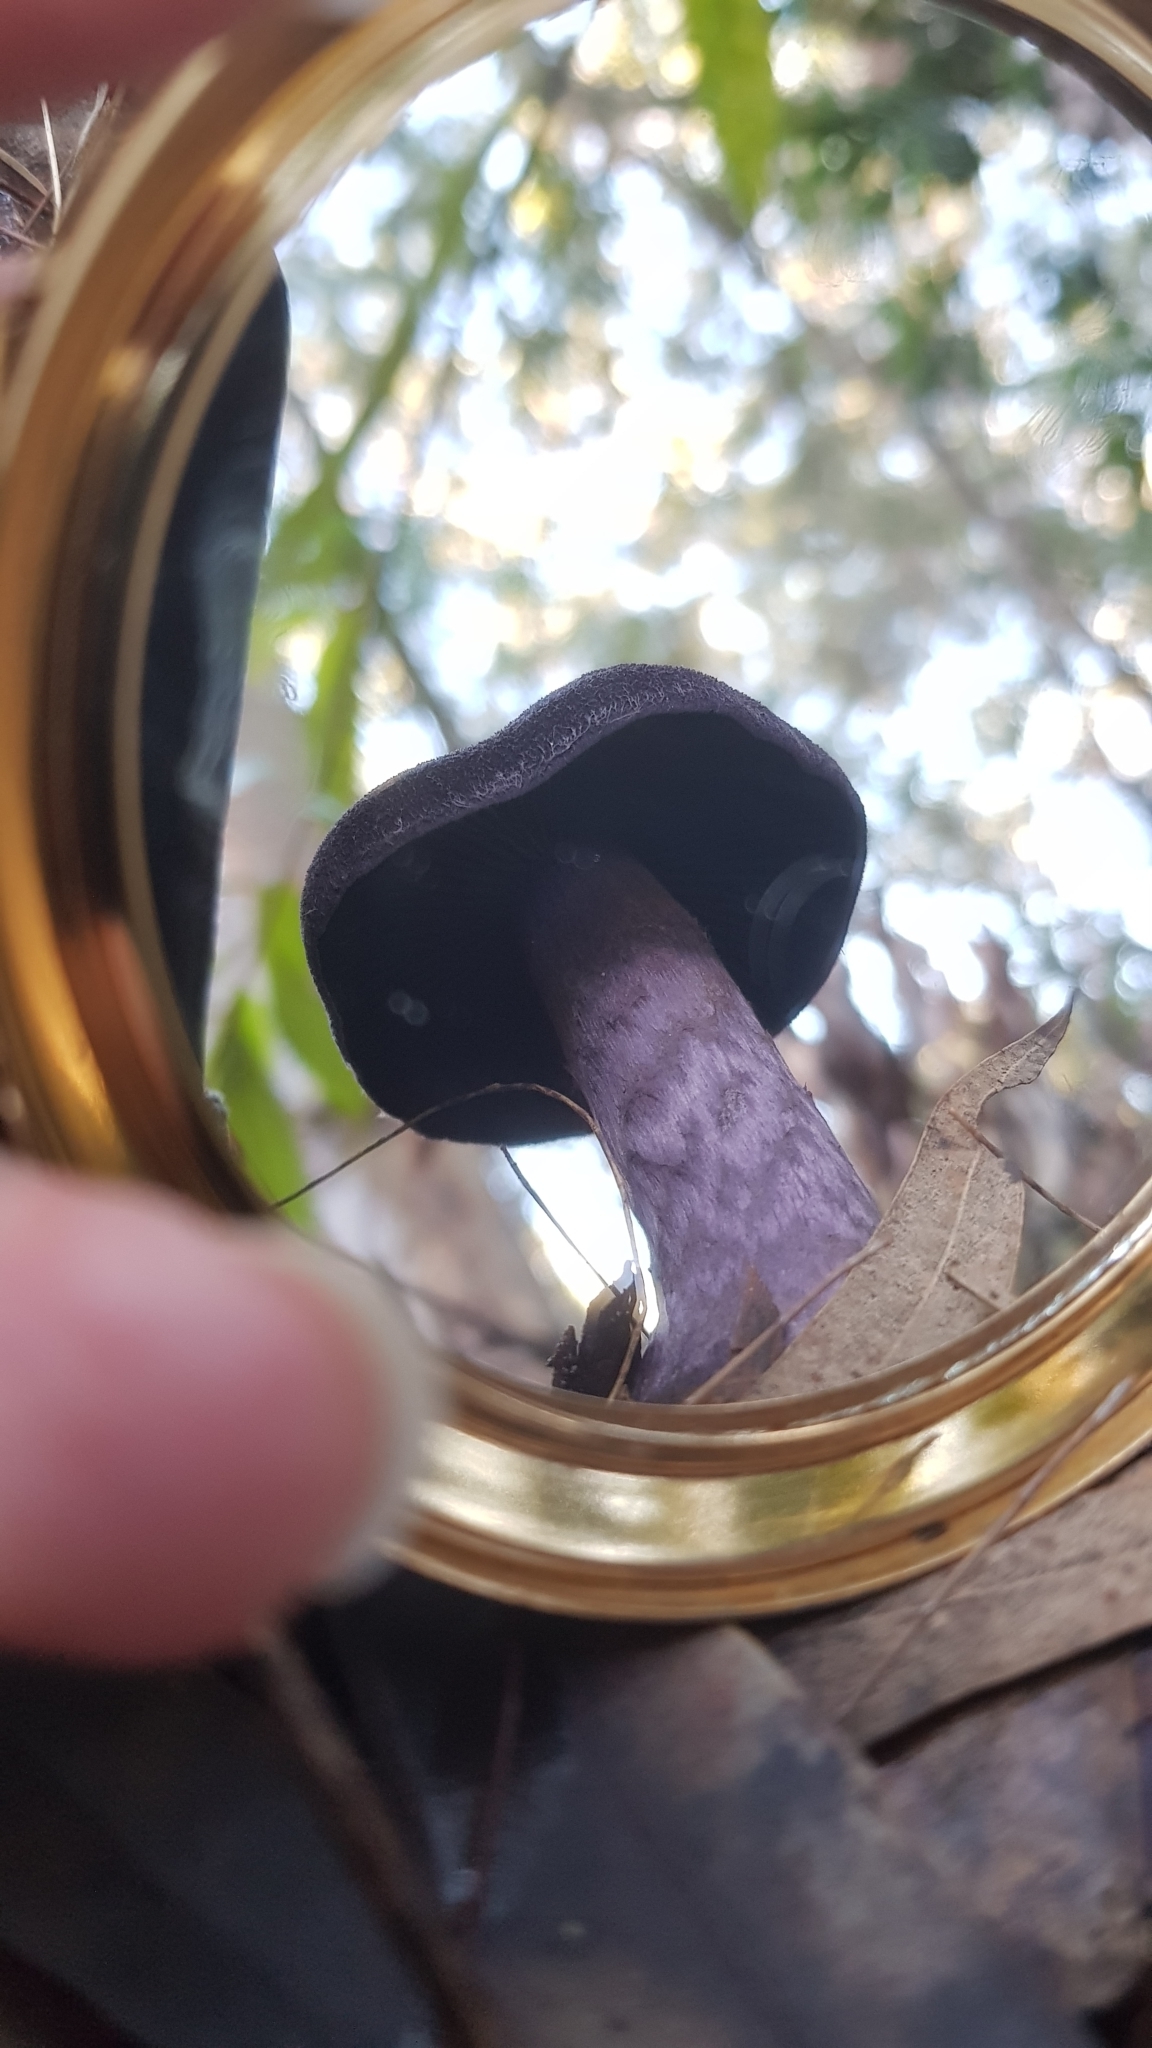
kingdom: Fungi
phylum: Basidiomycota
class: Agaricomycetes
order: Agaricales
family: Cortinariaceae
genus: Cortinarius
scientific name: Cortinarius kioloensis
